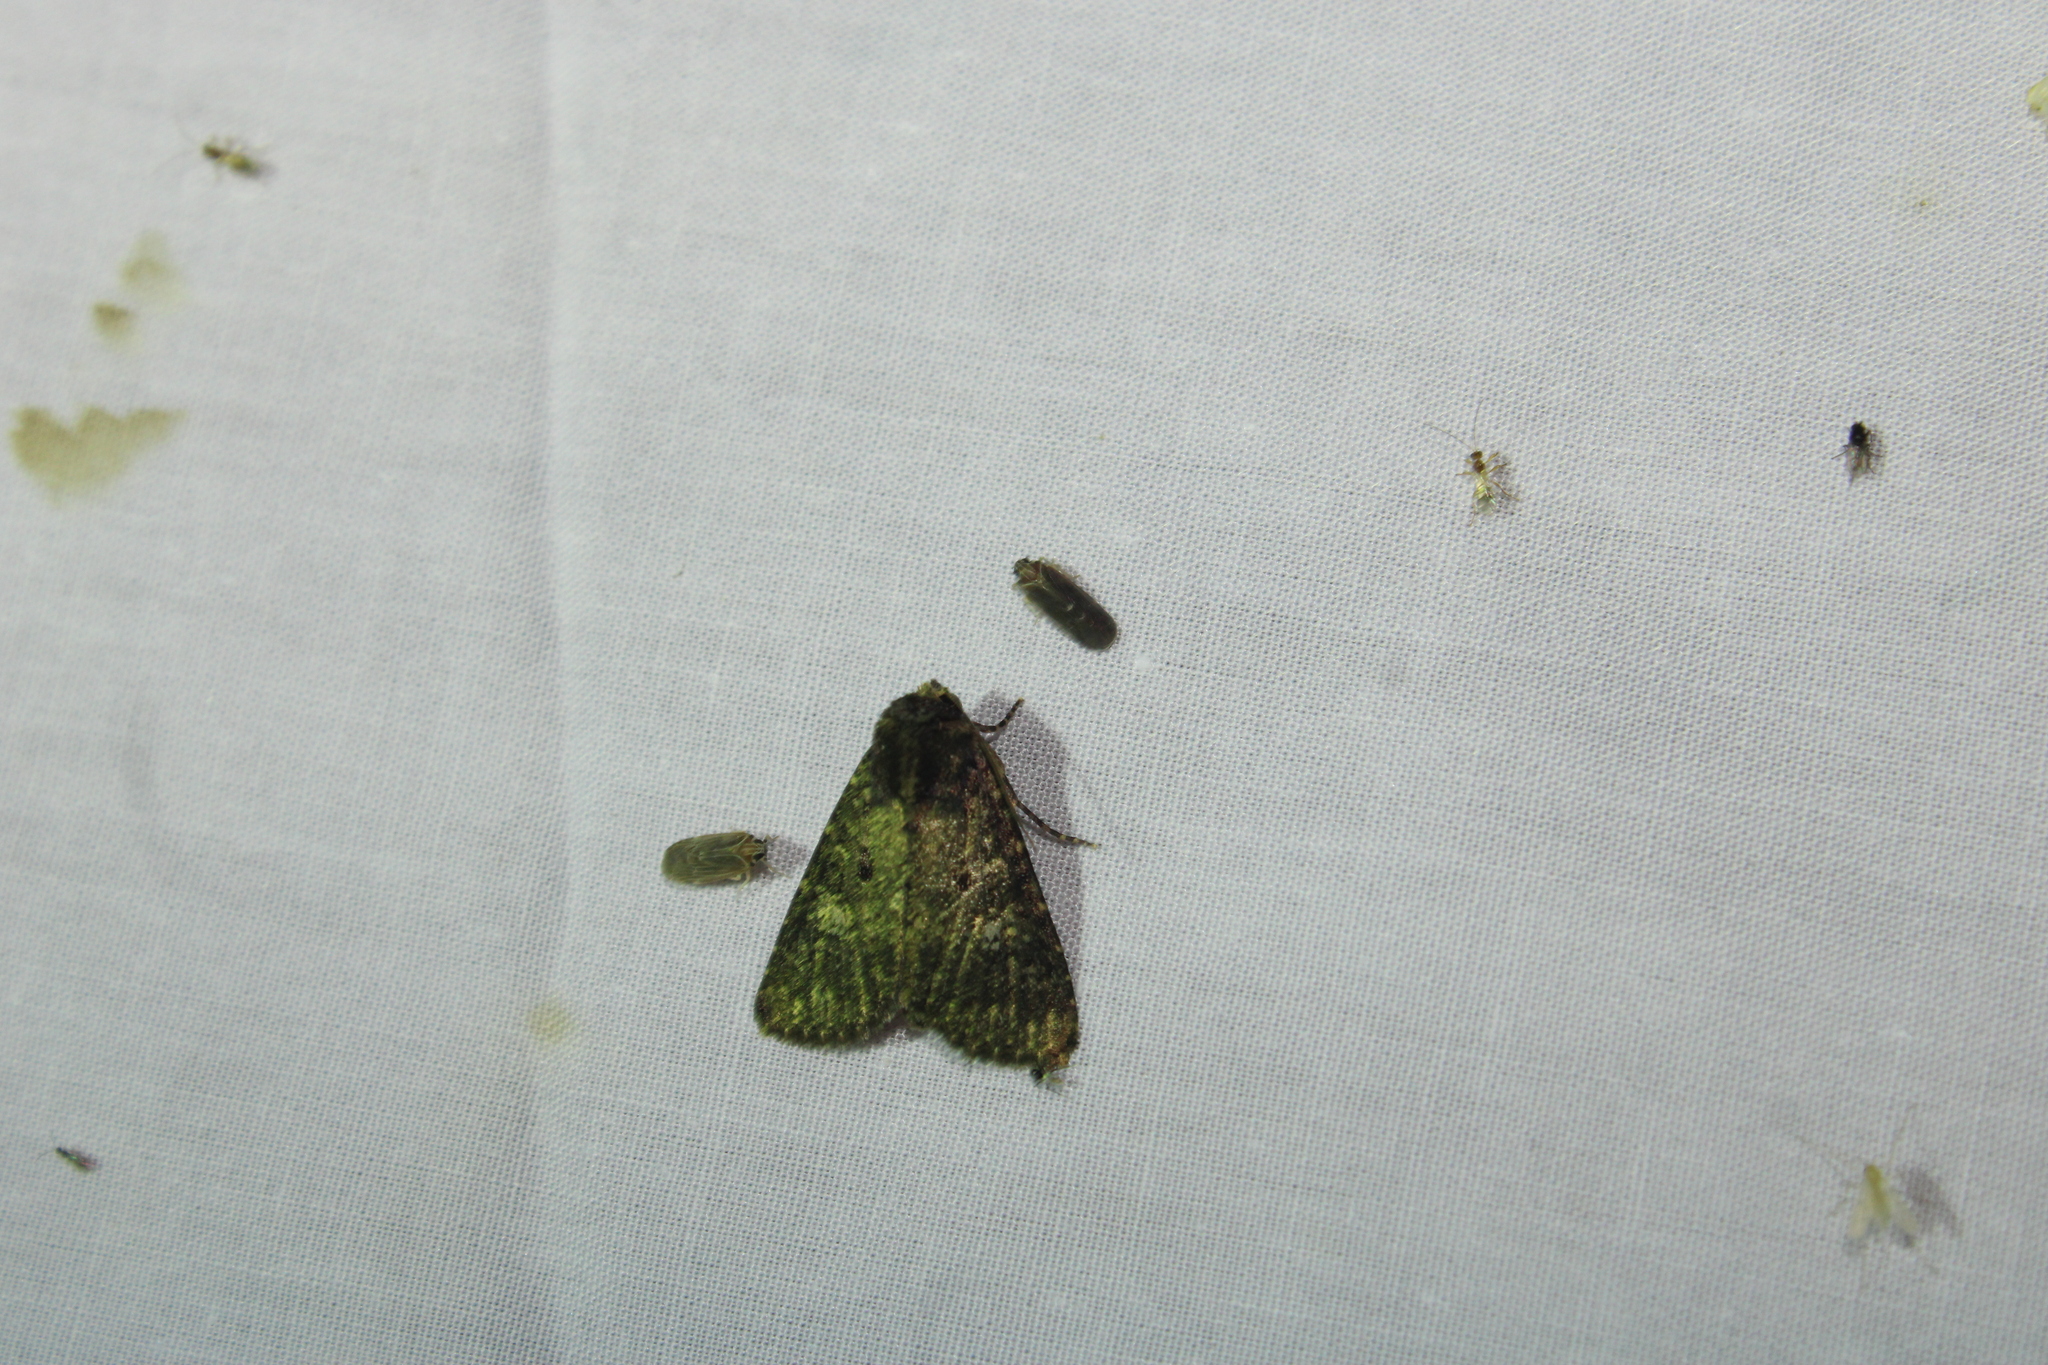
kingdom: Animalia
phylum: Arthropoda
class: Insecta
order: Lepidoptera
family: Noctuidae
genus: Condica
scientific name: Condica vecors
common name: Dusky groundling
